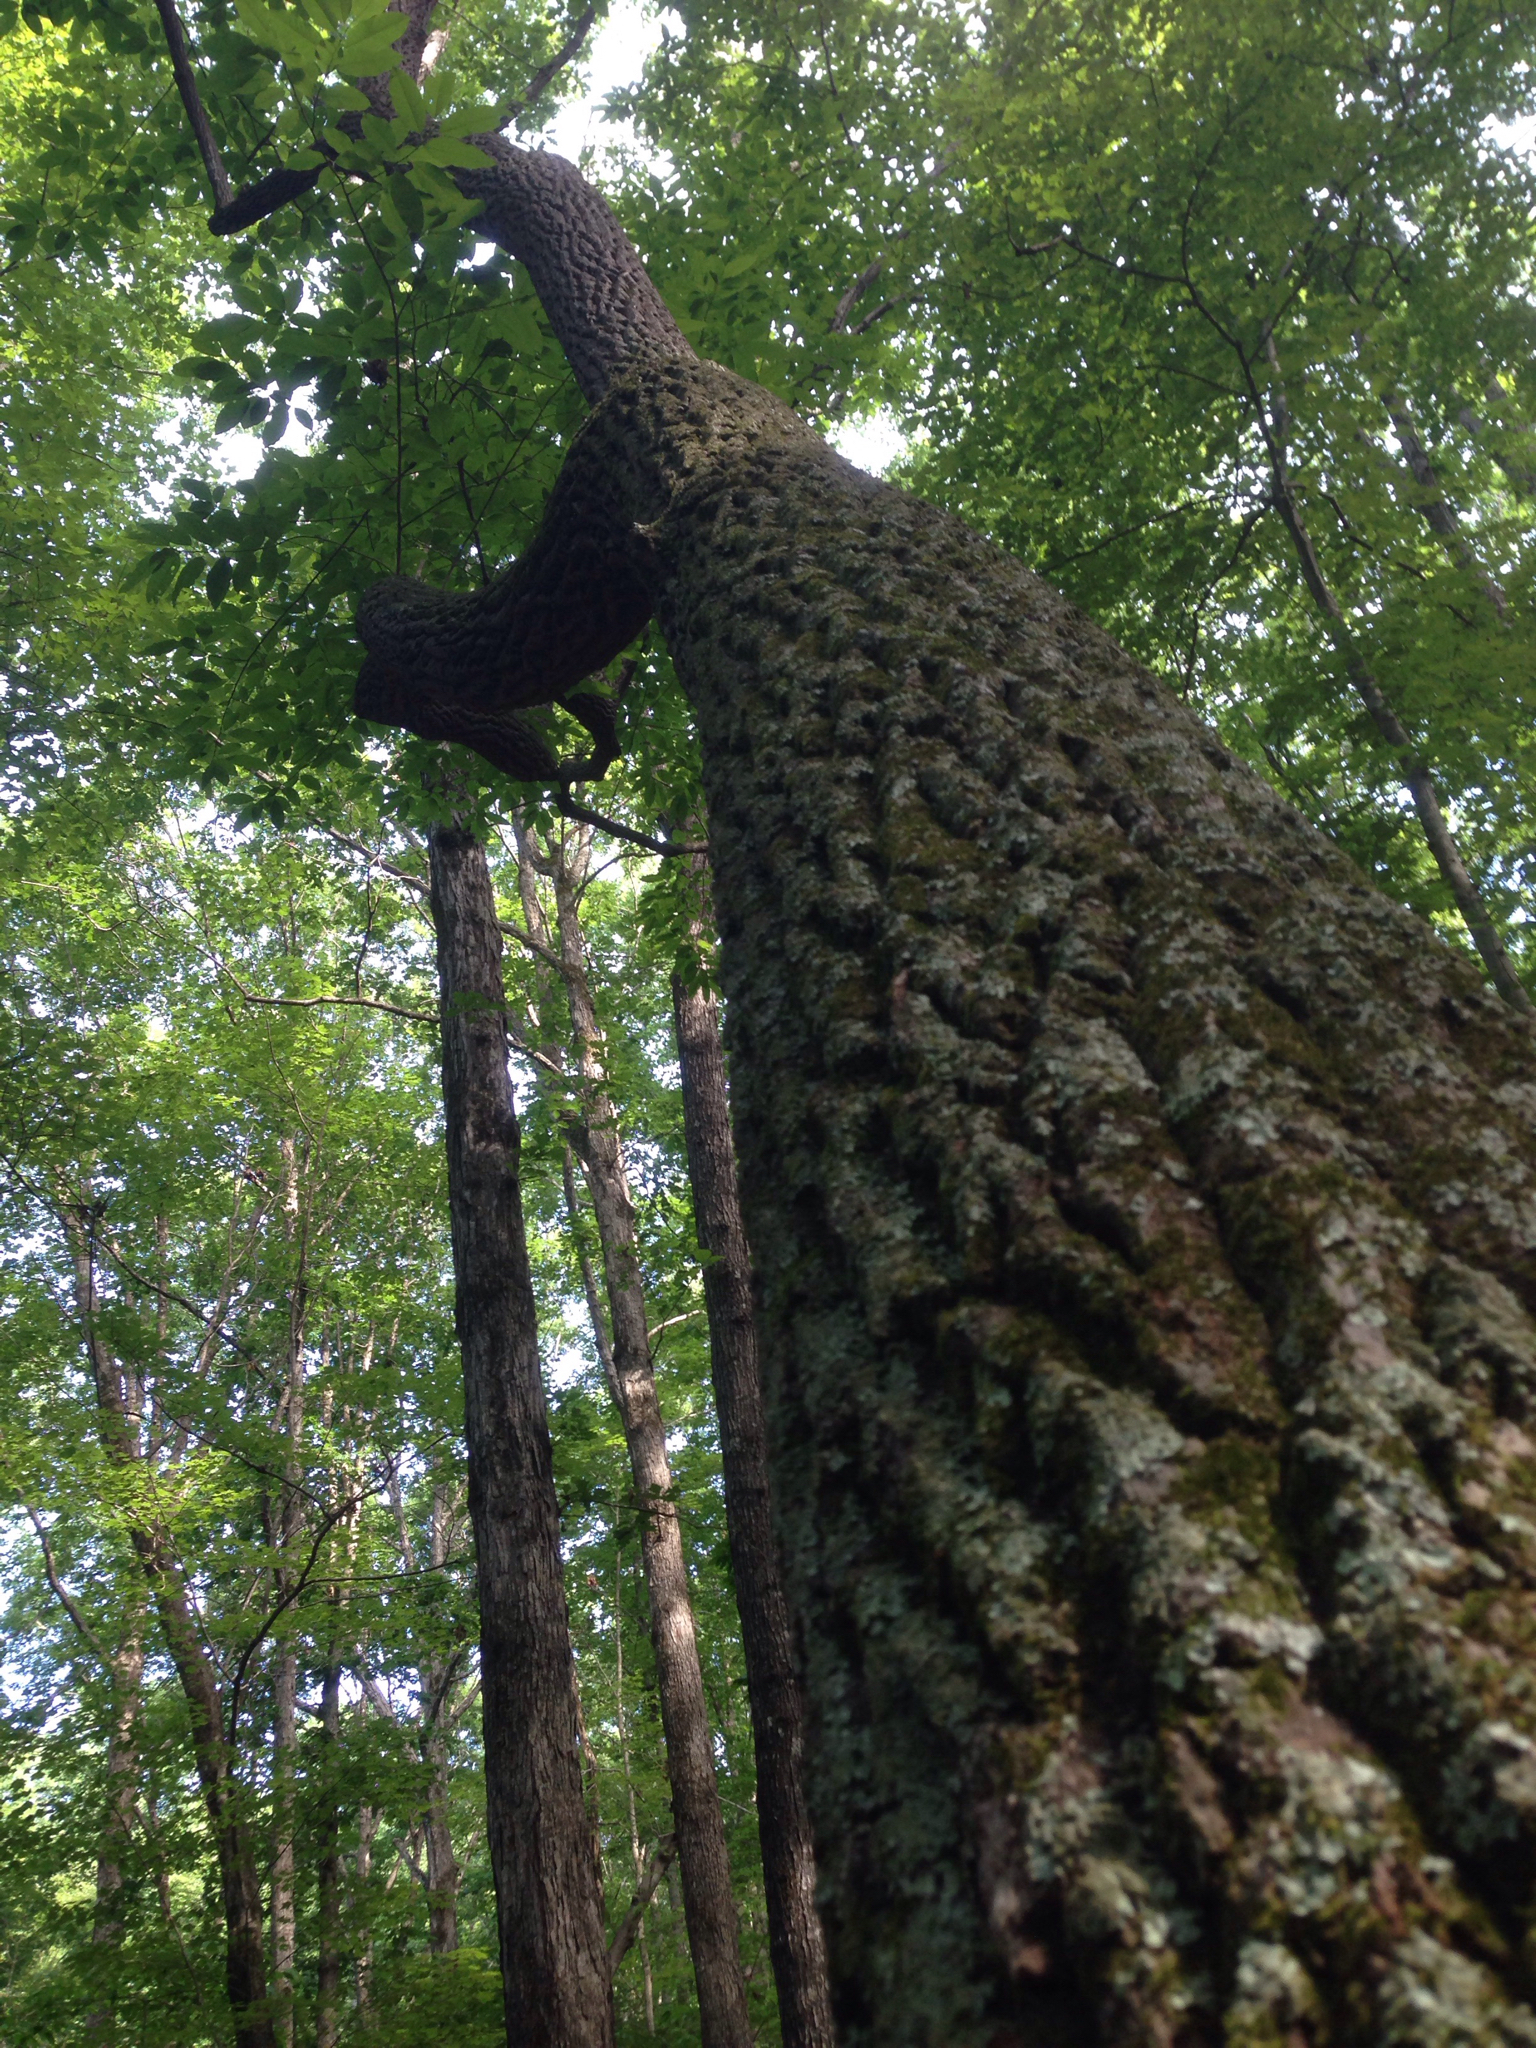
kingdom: Plantae
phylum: Tracheophyta
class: Magnoliopsida
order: Ericales
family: Ericaceae
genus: Oxydendrum
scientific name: Oxydendrum arboreum
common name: Sourwood
